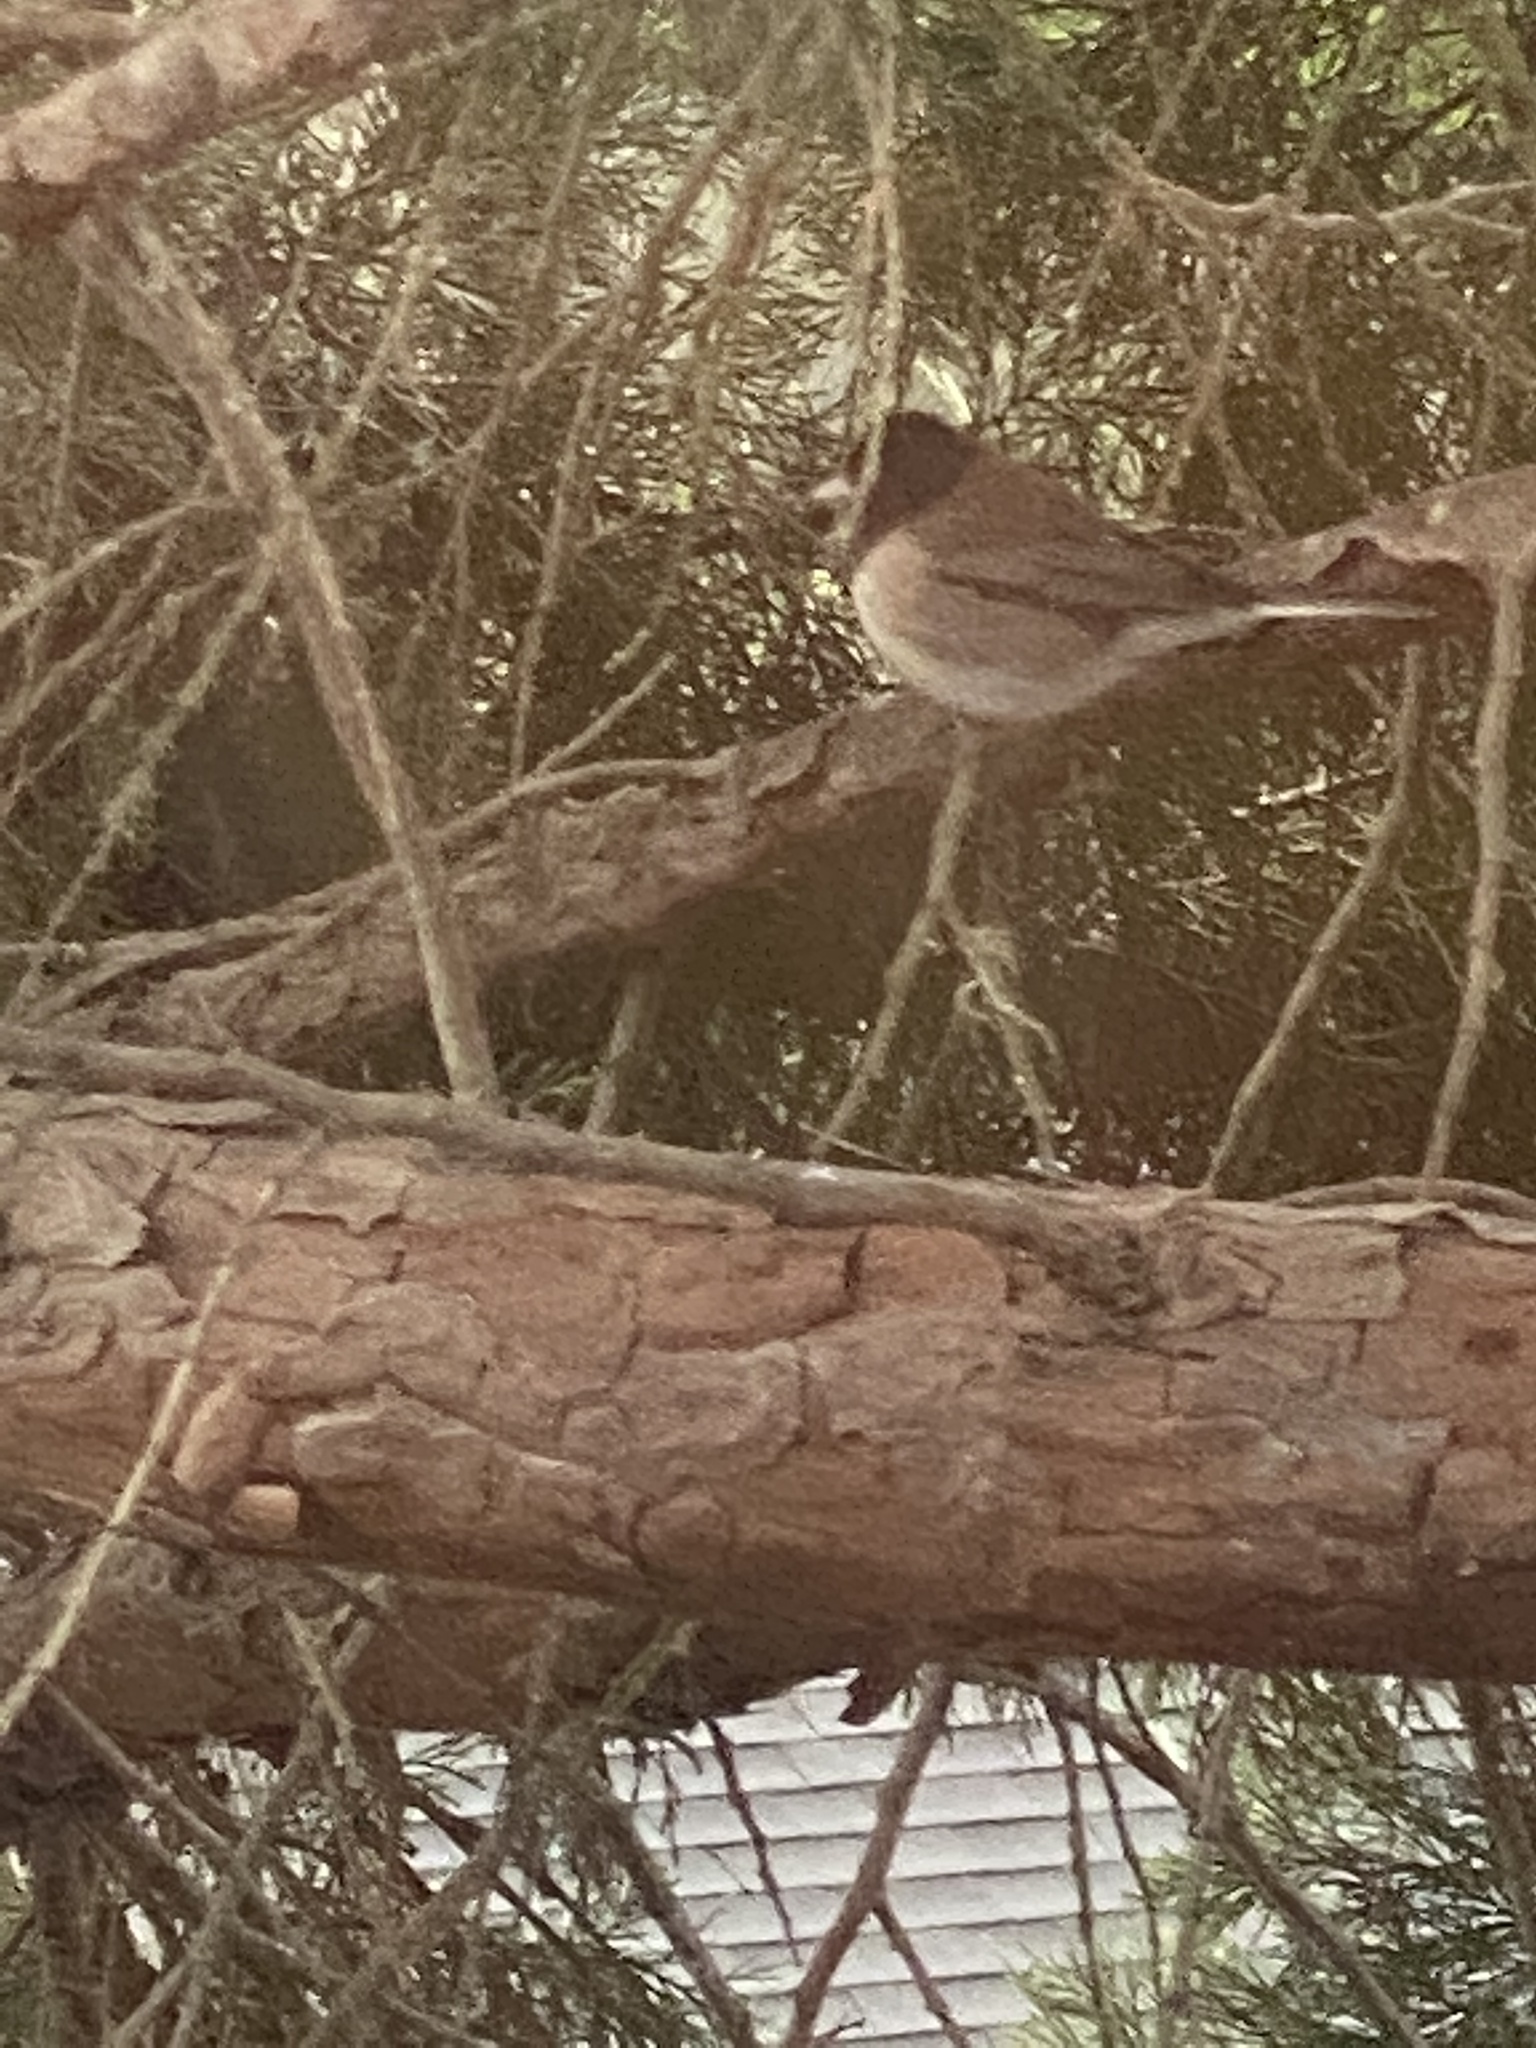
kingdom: Animalia
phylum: Chordata
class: Aves
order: Passeriformes
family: Passerellidae
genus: Junco
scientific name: Junco hyemalis
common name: Dark-eyed junco
